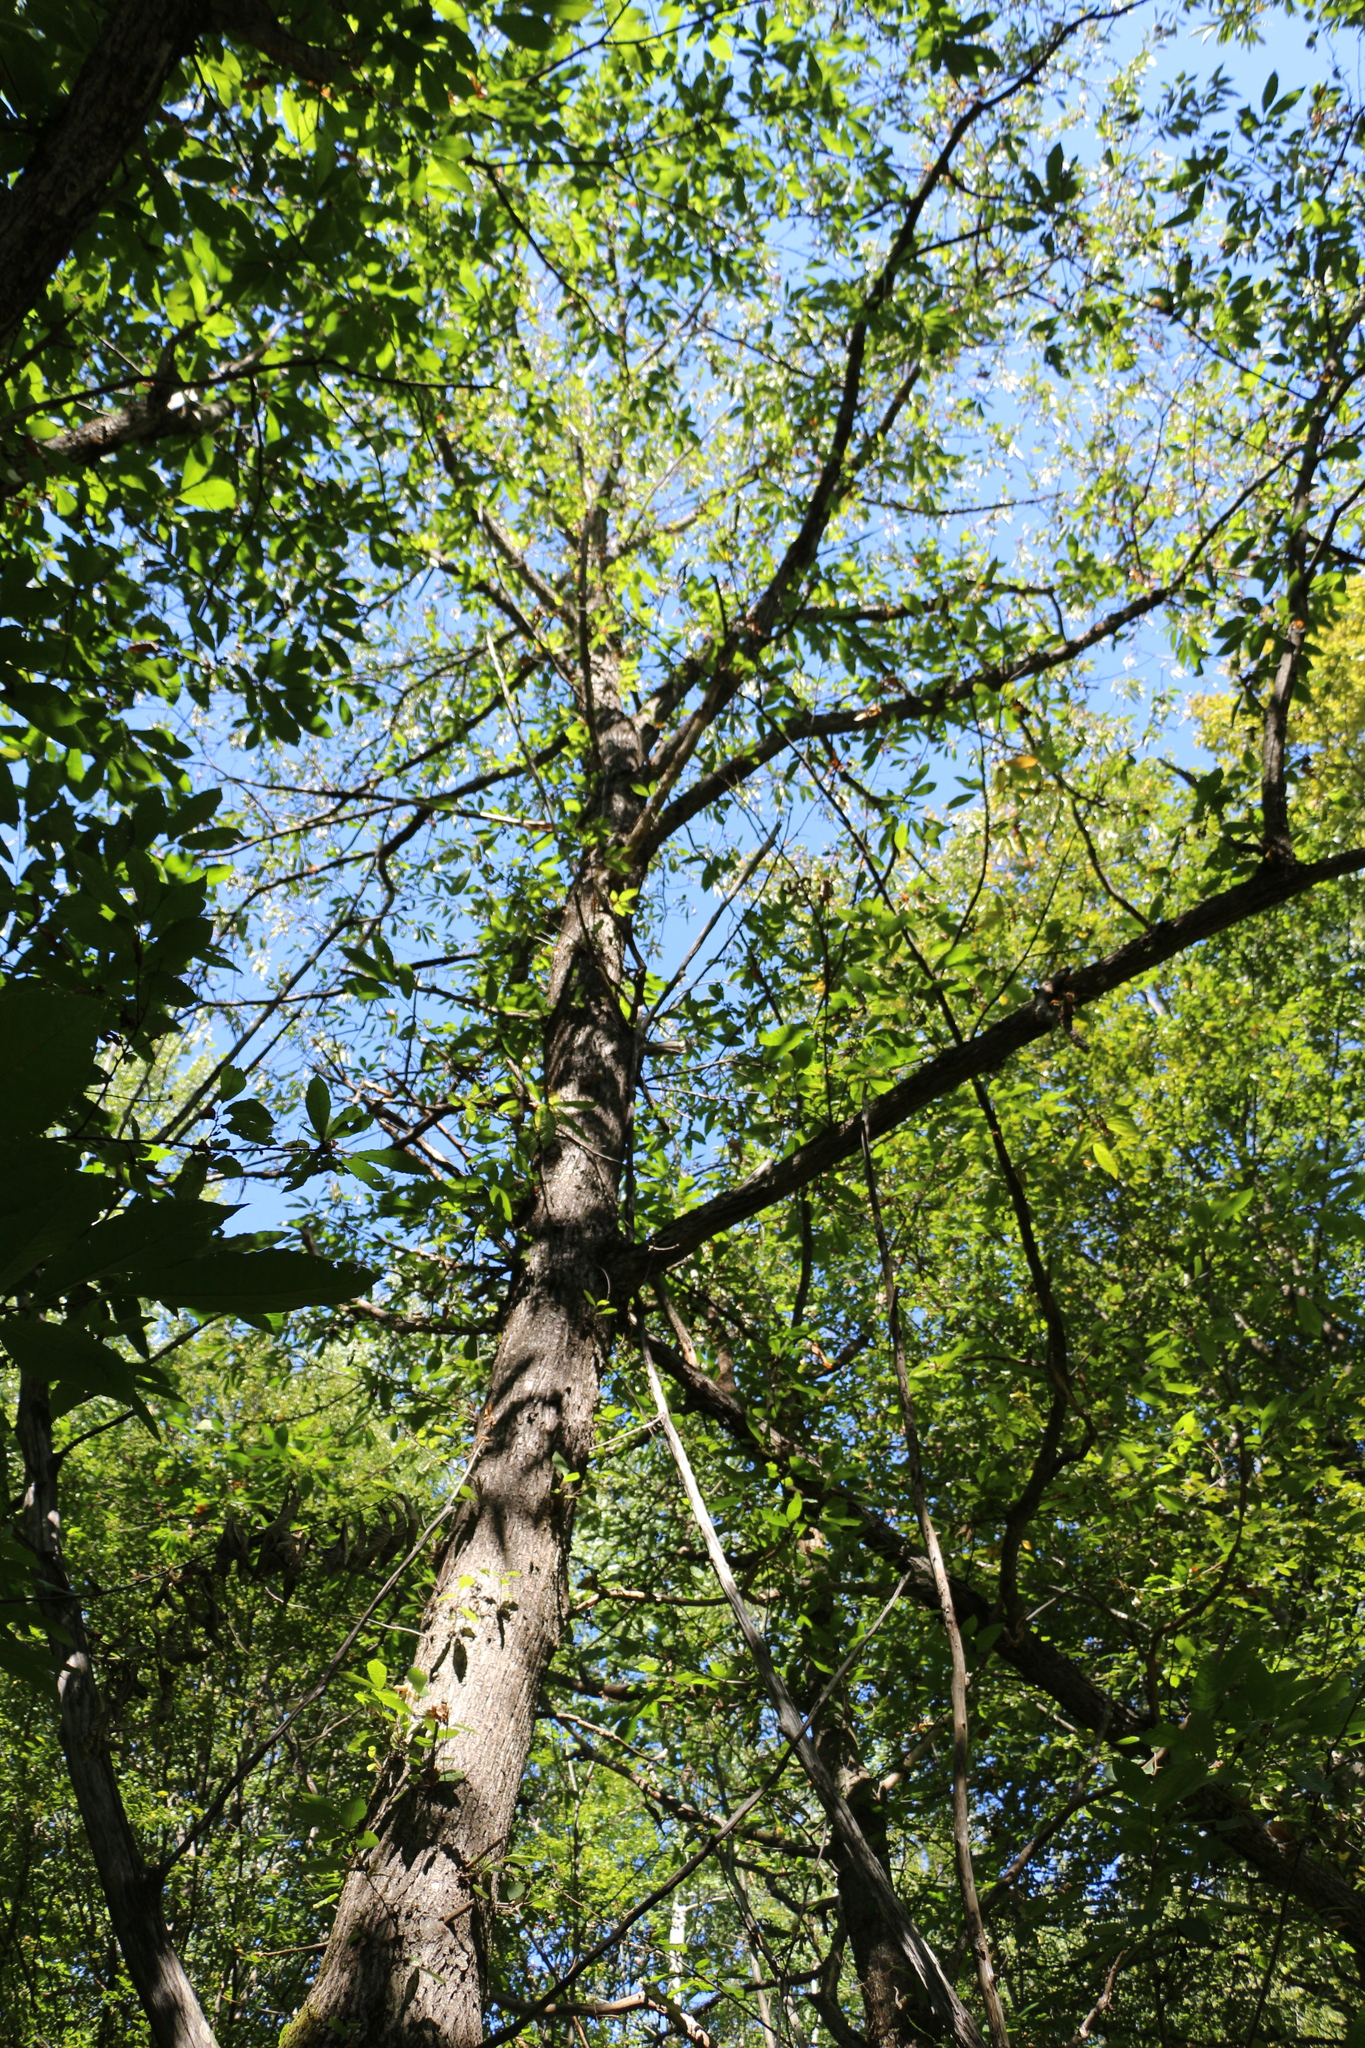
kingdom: Plantae
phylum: Tracheophyta
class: Magnoliopsida
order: Fagales
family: Fagaceae
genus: Castanea
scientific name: Castanea sativa
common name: Sweet chestnut
